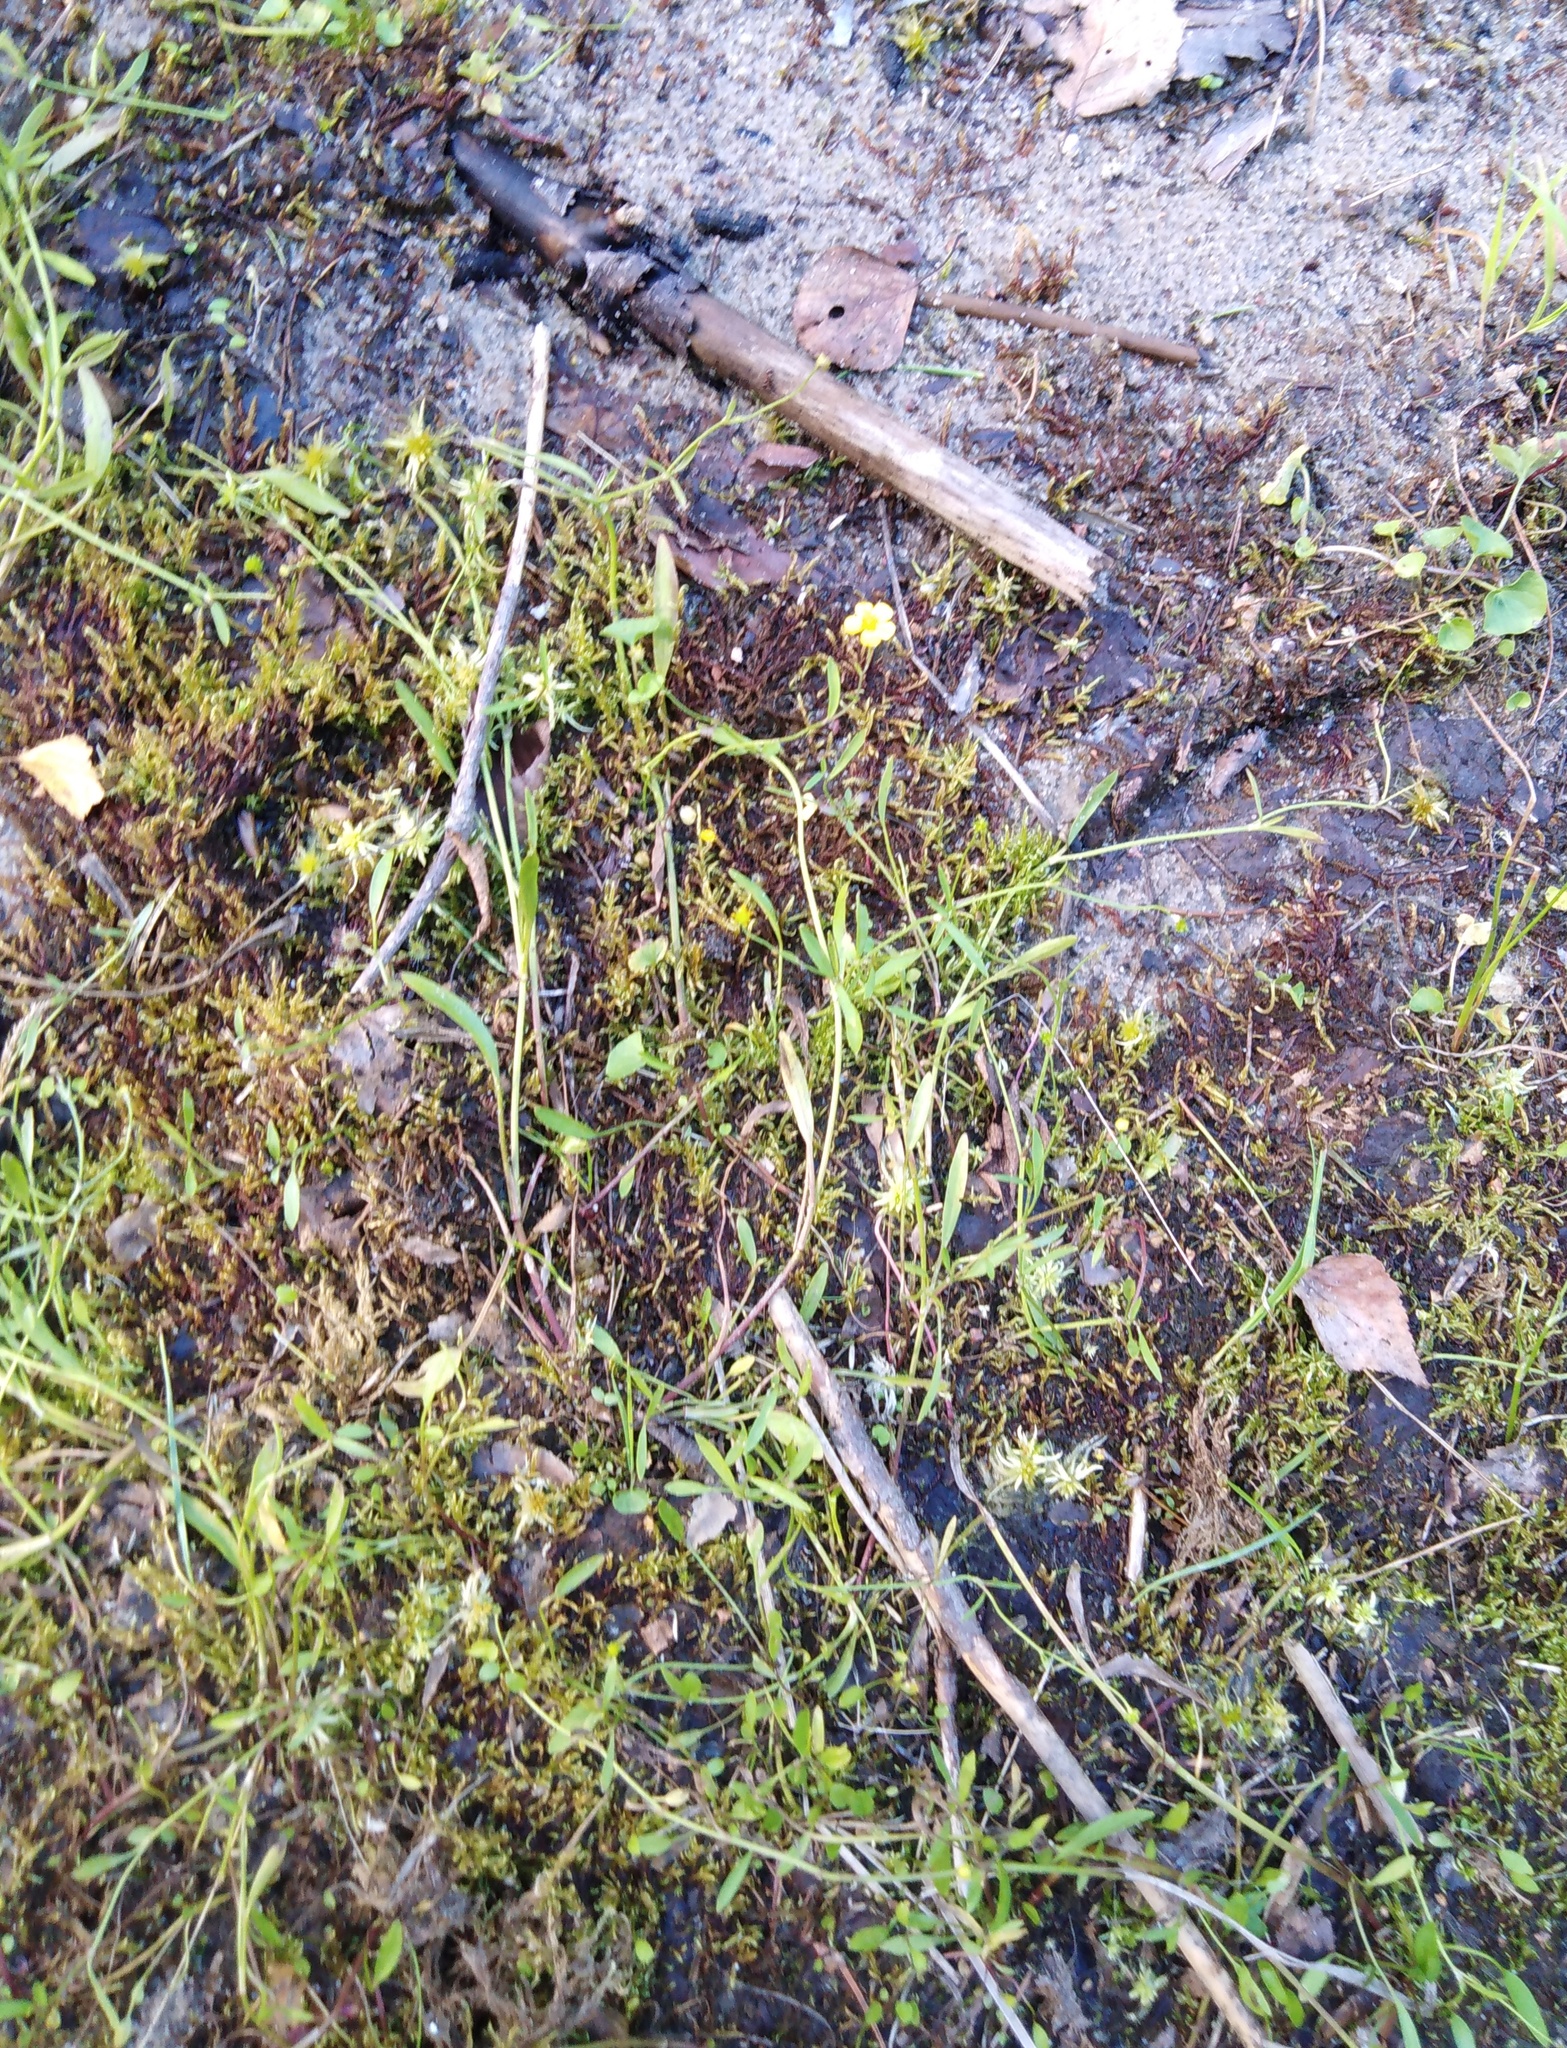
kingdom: Plantae
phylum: Tracheophyta
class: Magnoliopsida
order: Ranunculales
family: Ranunculaceae
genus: Ranunculus
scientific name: Ranunculus flammula
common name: Lesser spearwort
